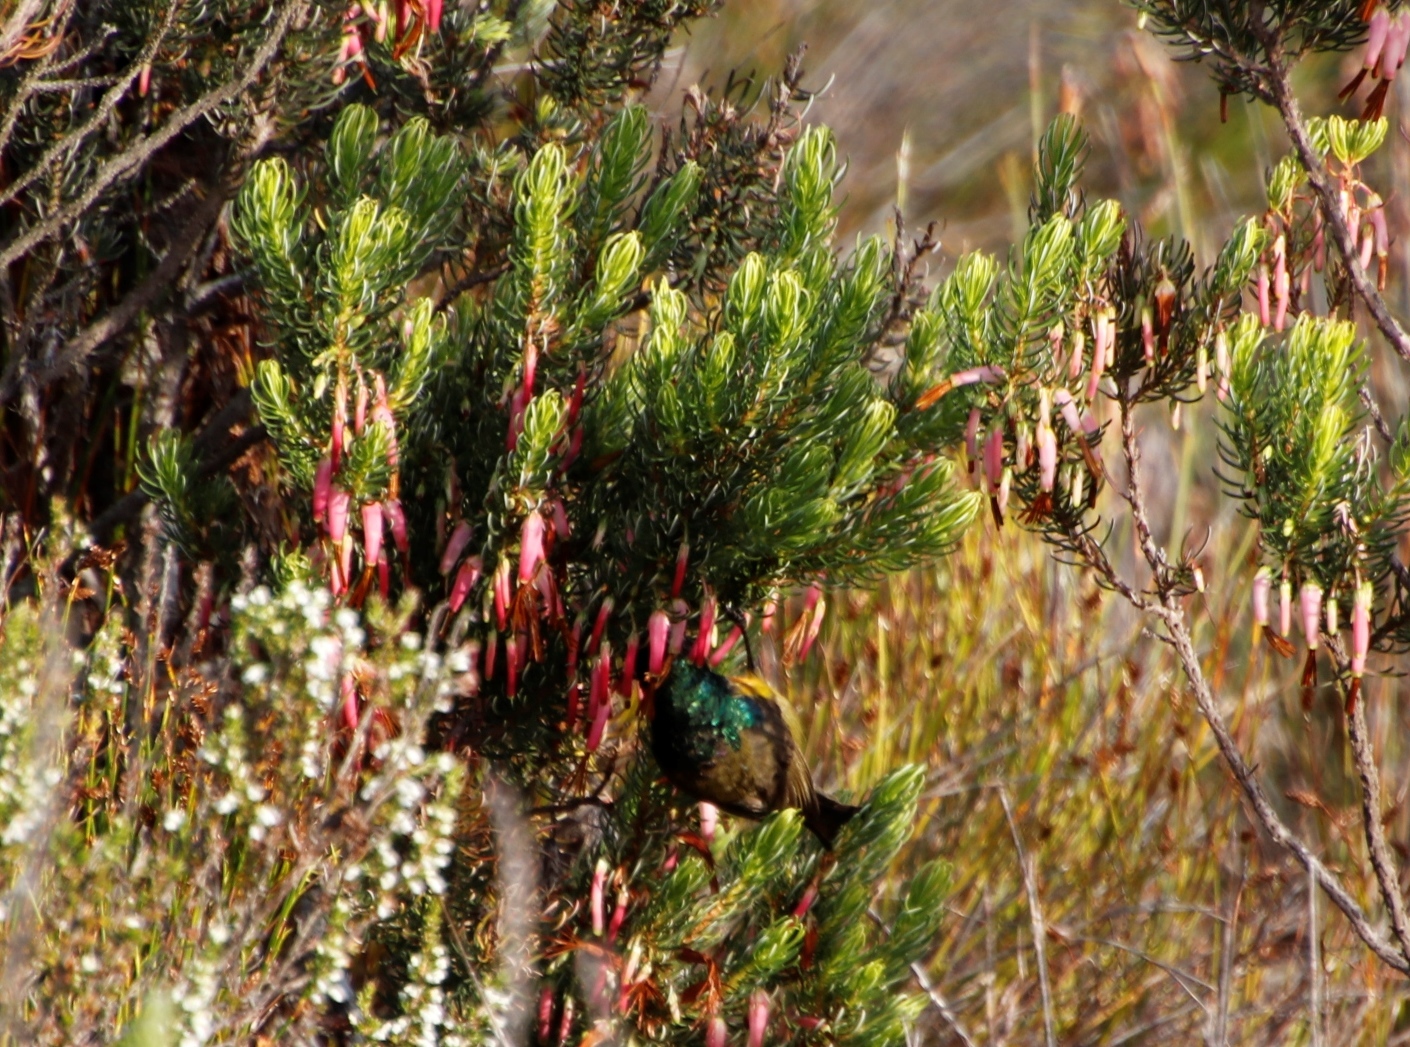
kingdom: Plantae
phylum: Tracheophyta
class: Magnoliopsida
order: Ericales
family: Ericaceae
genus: Erica
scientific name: Erica plukenetii
